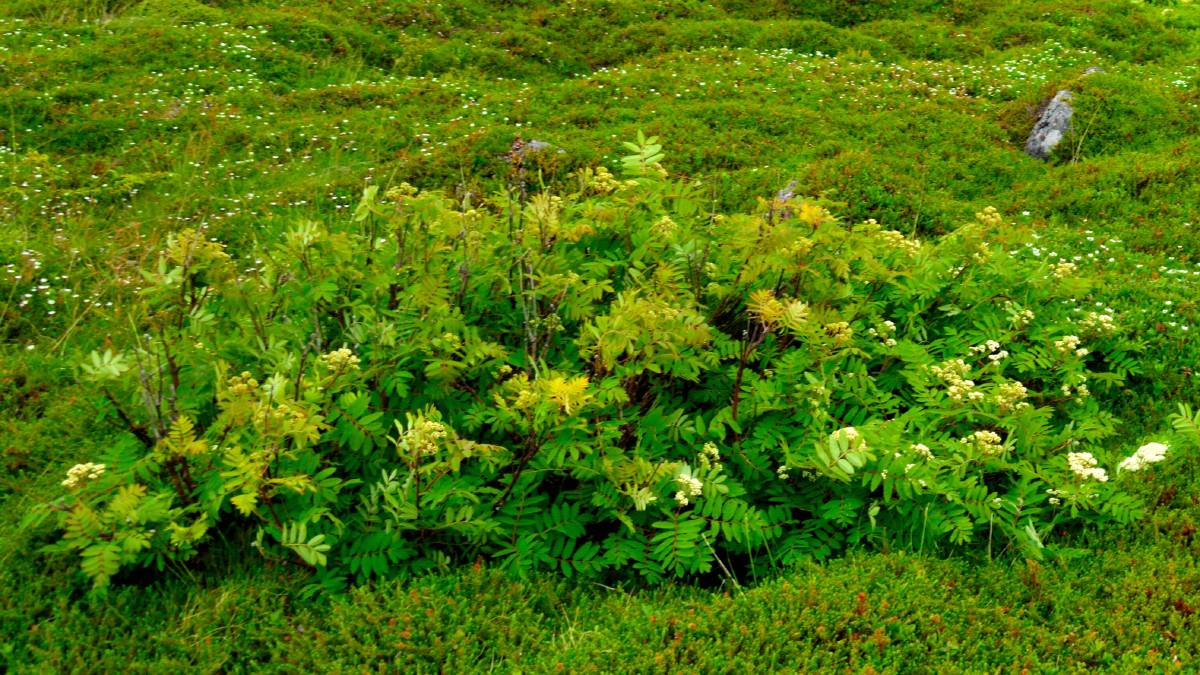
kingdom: Plantae
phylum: Tracheophyta
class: Magnoliopsida
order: Rosales
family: Rosaceae
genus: Sorbus
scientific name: Sorbus aucuparia
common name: Rowan
